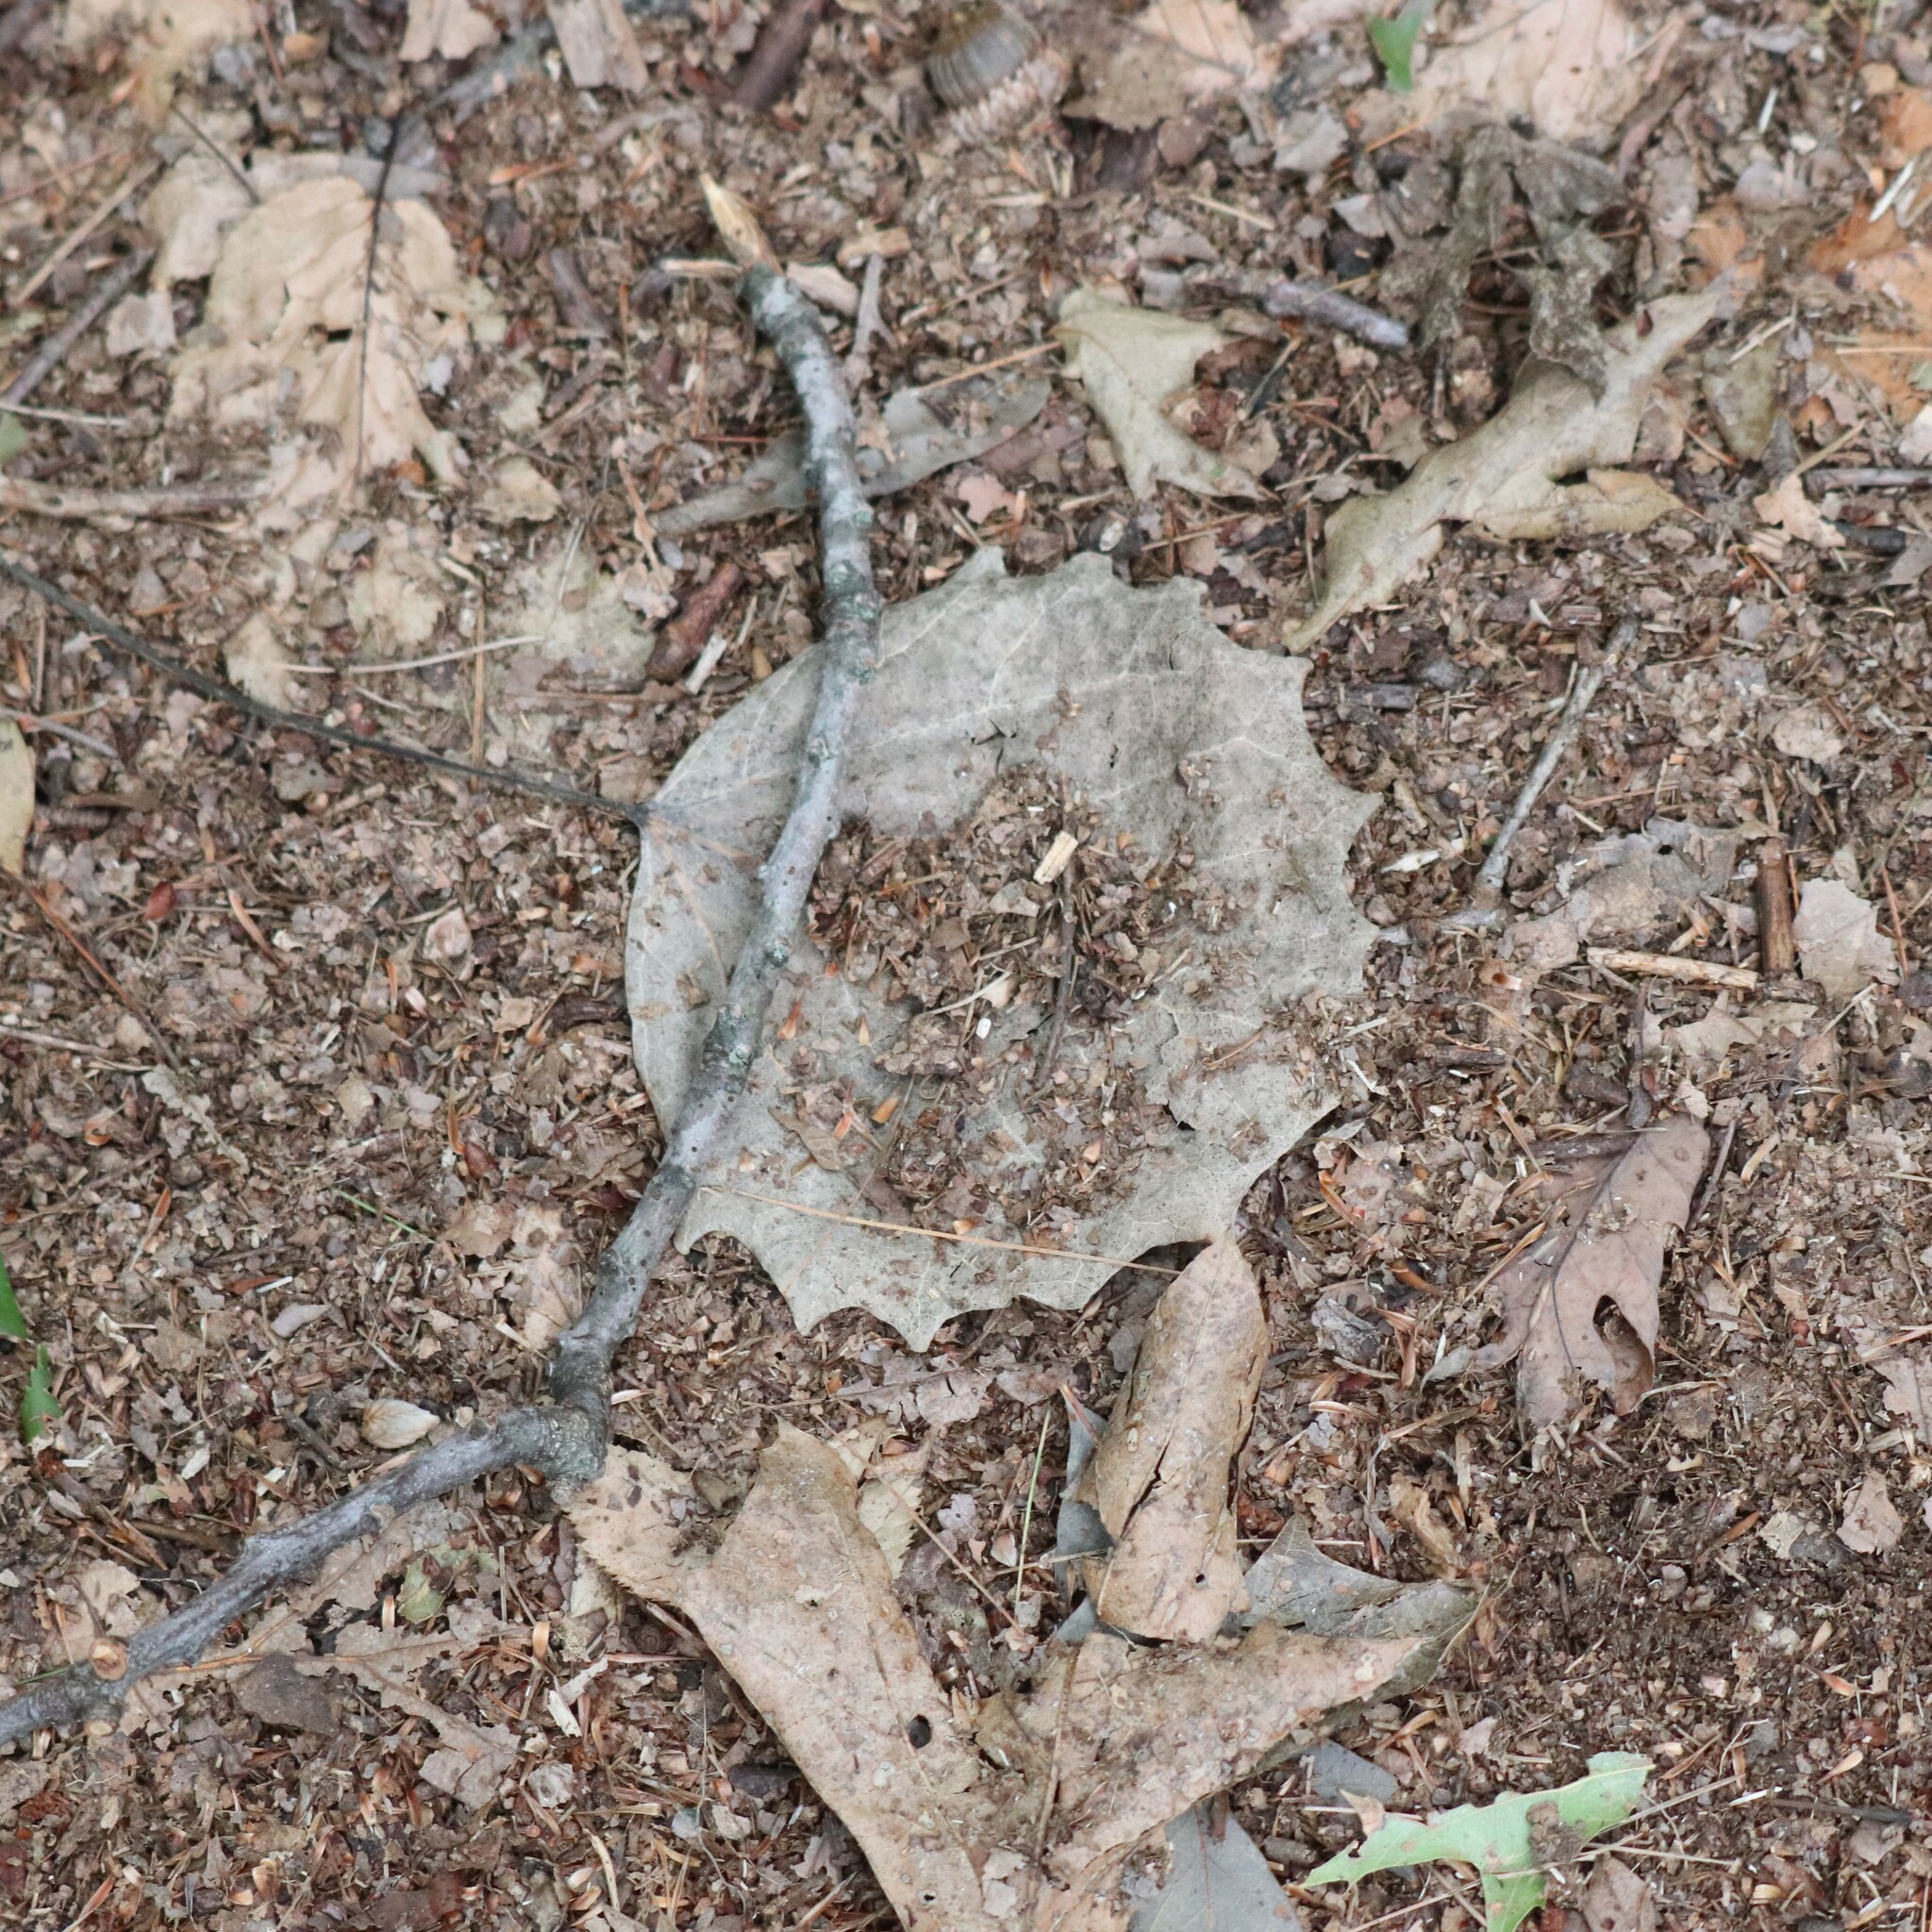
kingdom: Plantae
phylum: Tracheophyta
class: Magnoliopsida
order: Malpighiales
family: Salicaceae
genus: Populus
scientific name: Populus grandidentata
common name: Bigtooth aspen
